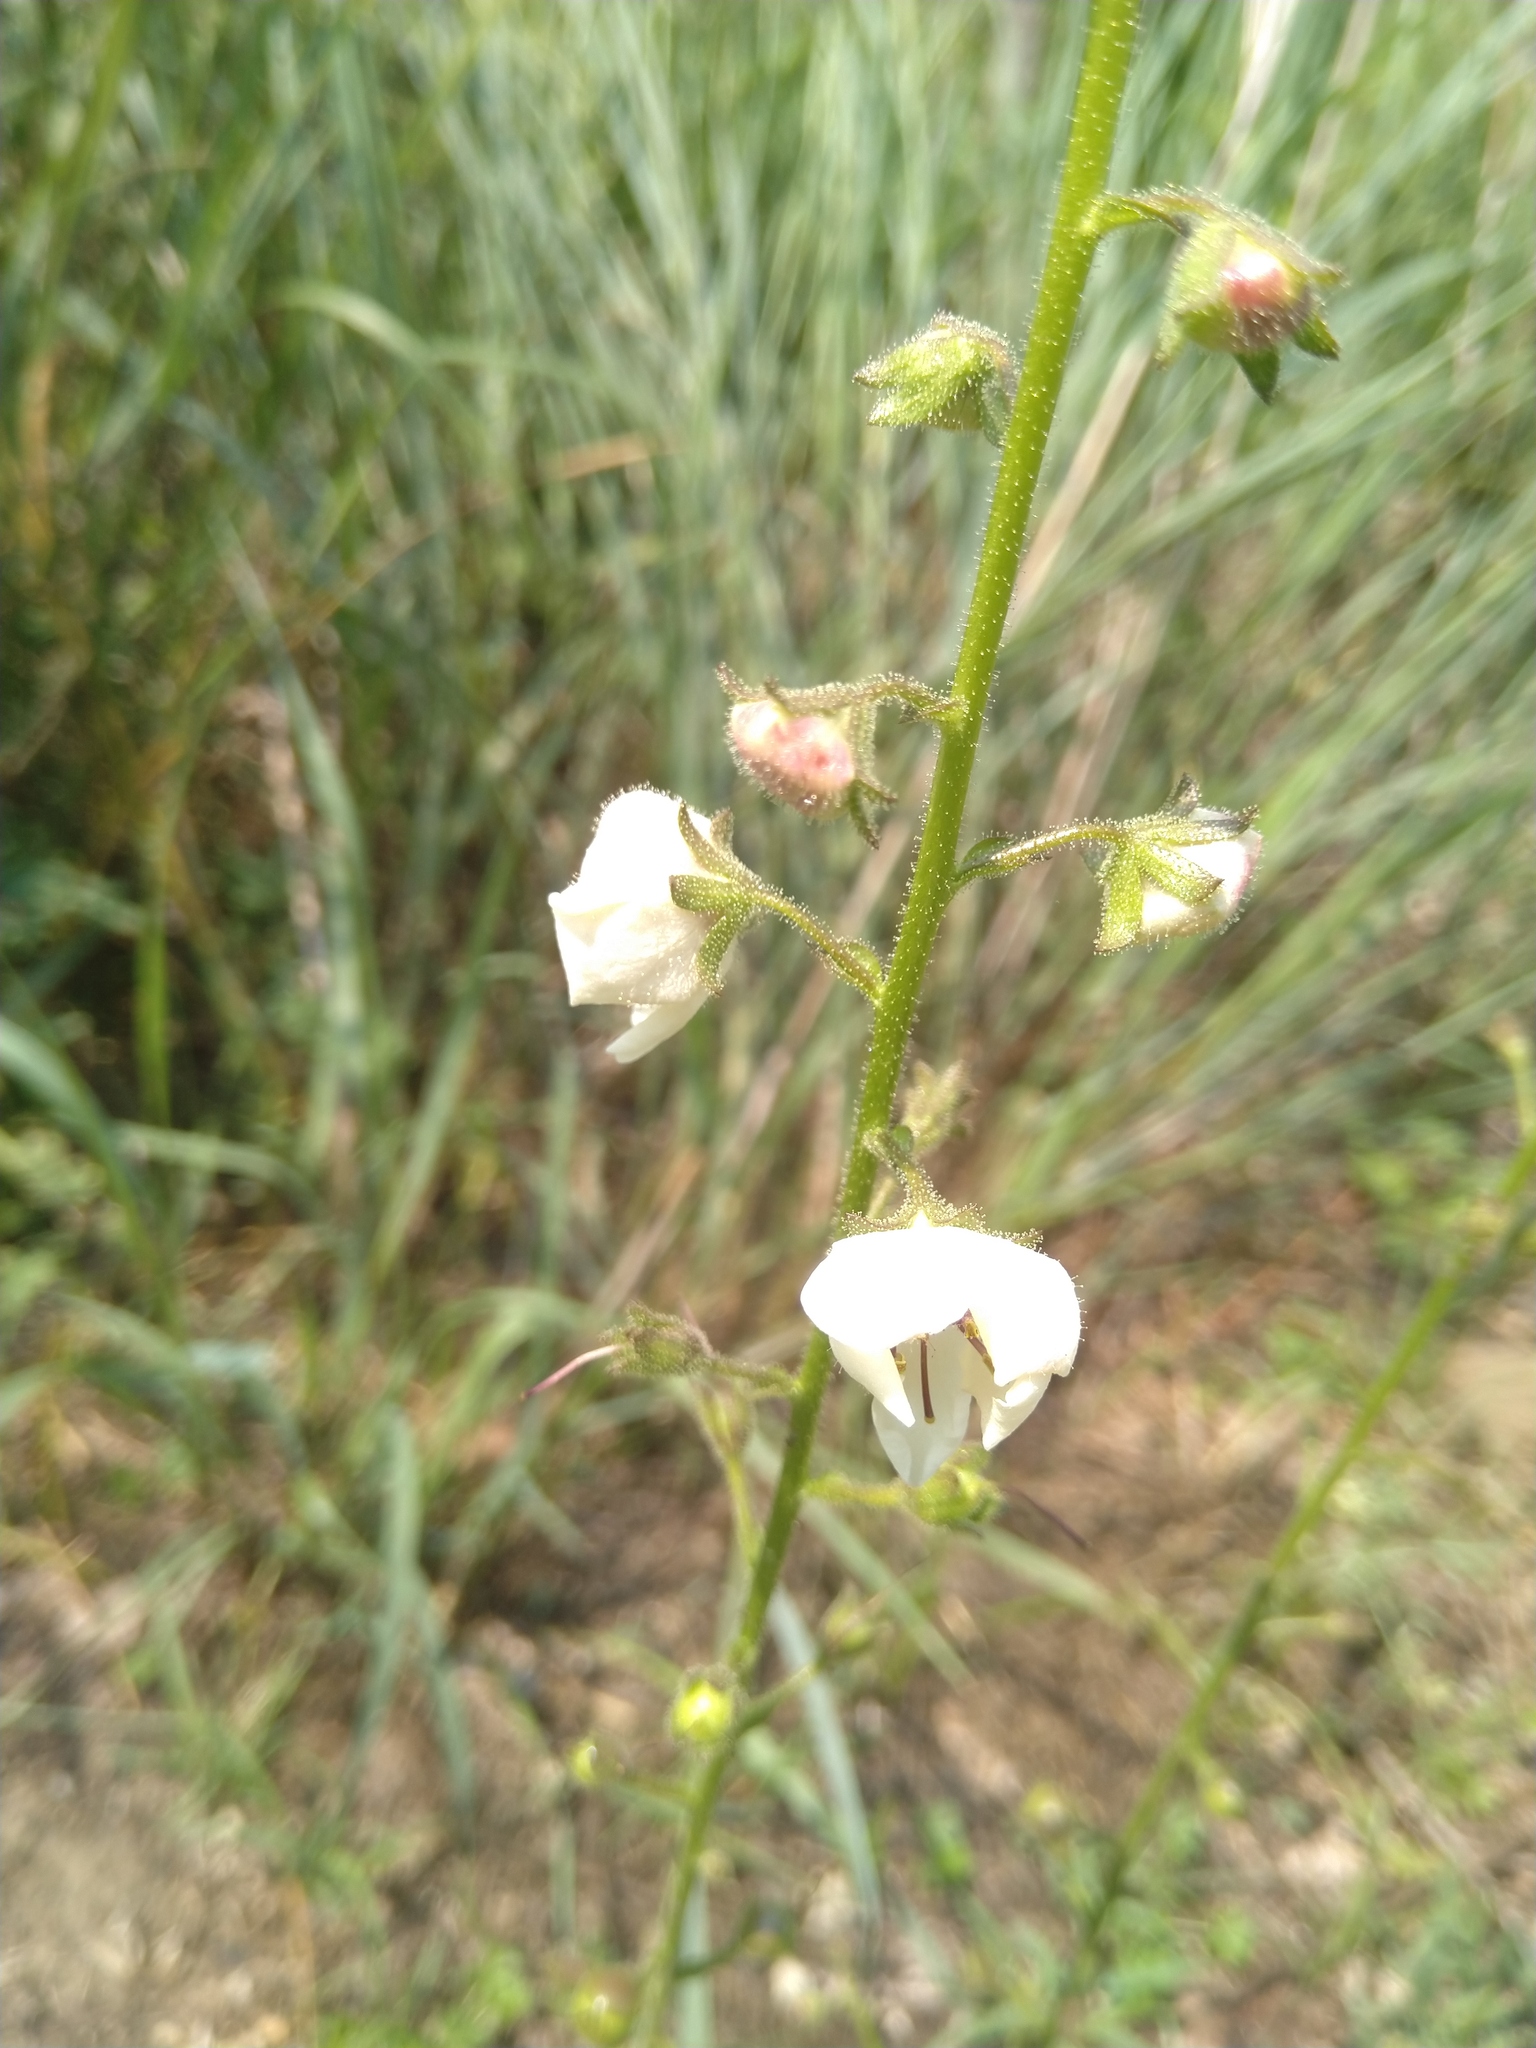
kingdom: Plantae
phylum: Tracheophyta
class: Magnoliopsida
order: Lamiales
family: Scrophulariaceae
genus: Verbascum
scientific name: Verbascum blattaria
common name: Moth mullein
